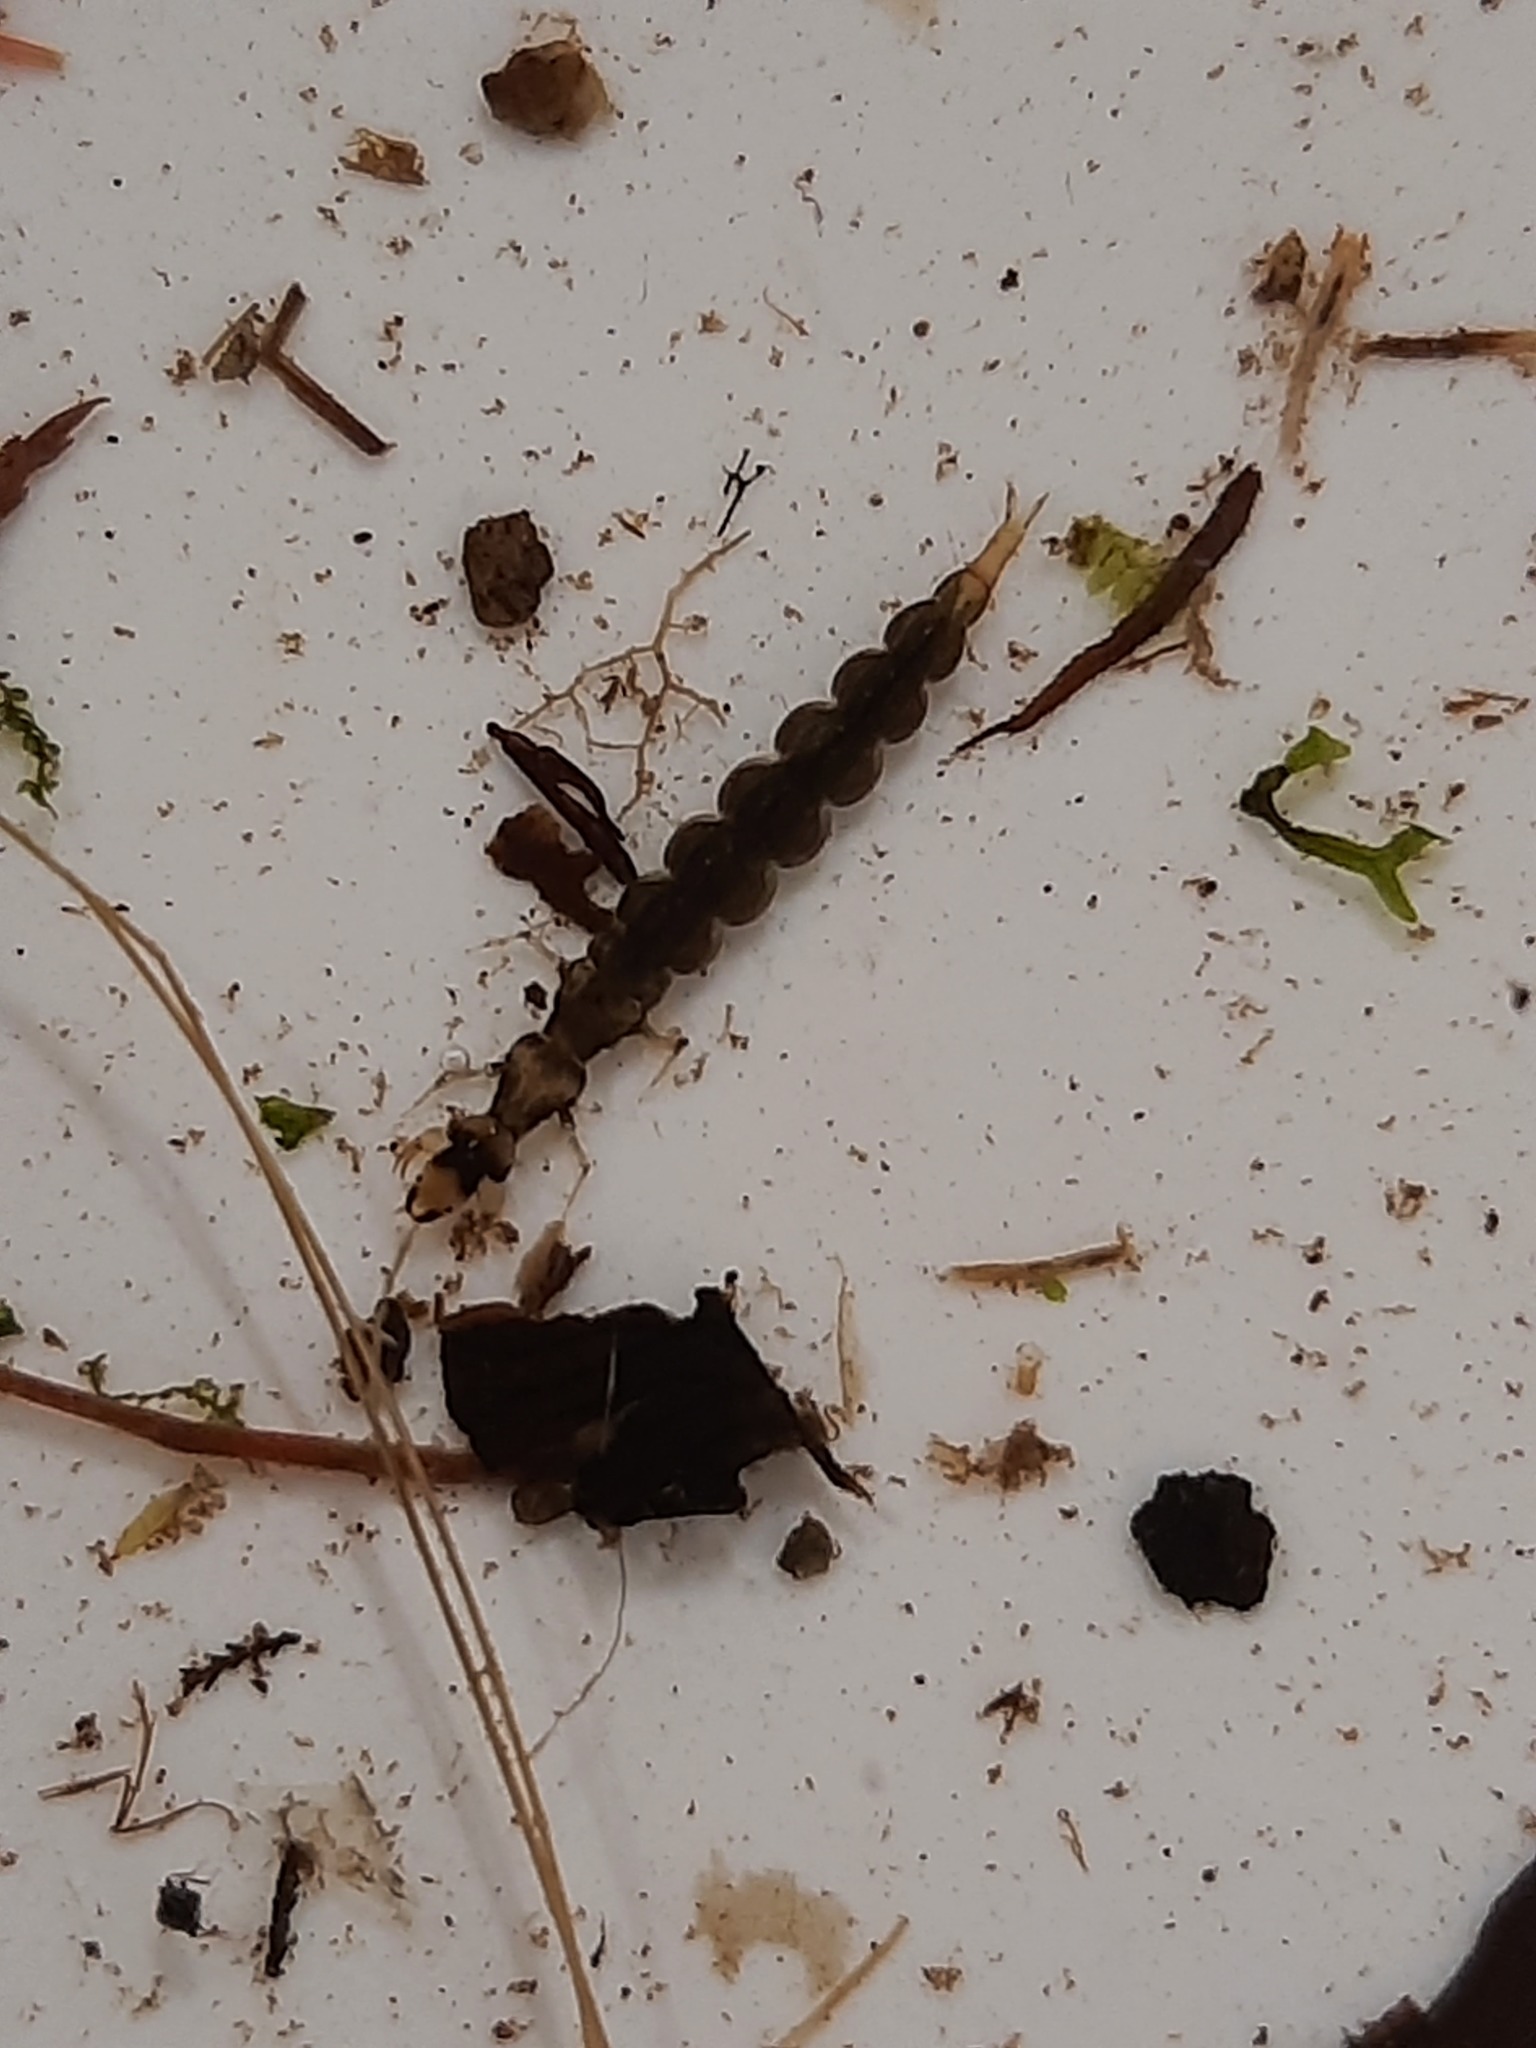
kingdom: Animalia
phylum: Arthropoda
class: Insecta
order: Trichoptera
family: Hydrobiosidae
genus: Hydrobiosis
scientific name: Hydrobiosis
